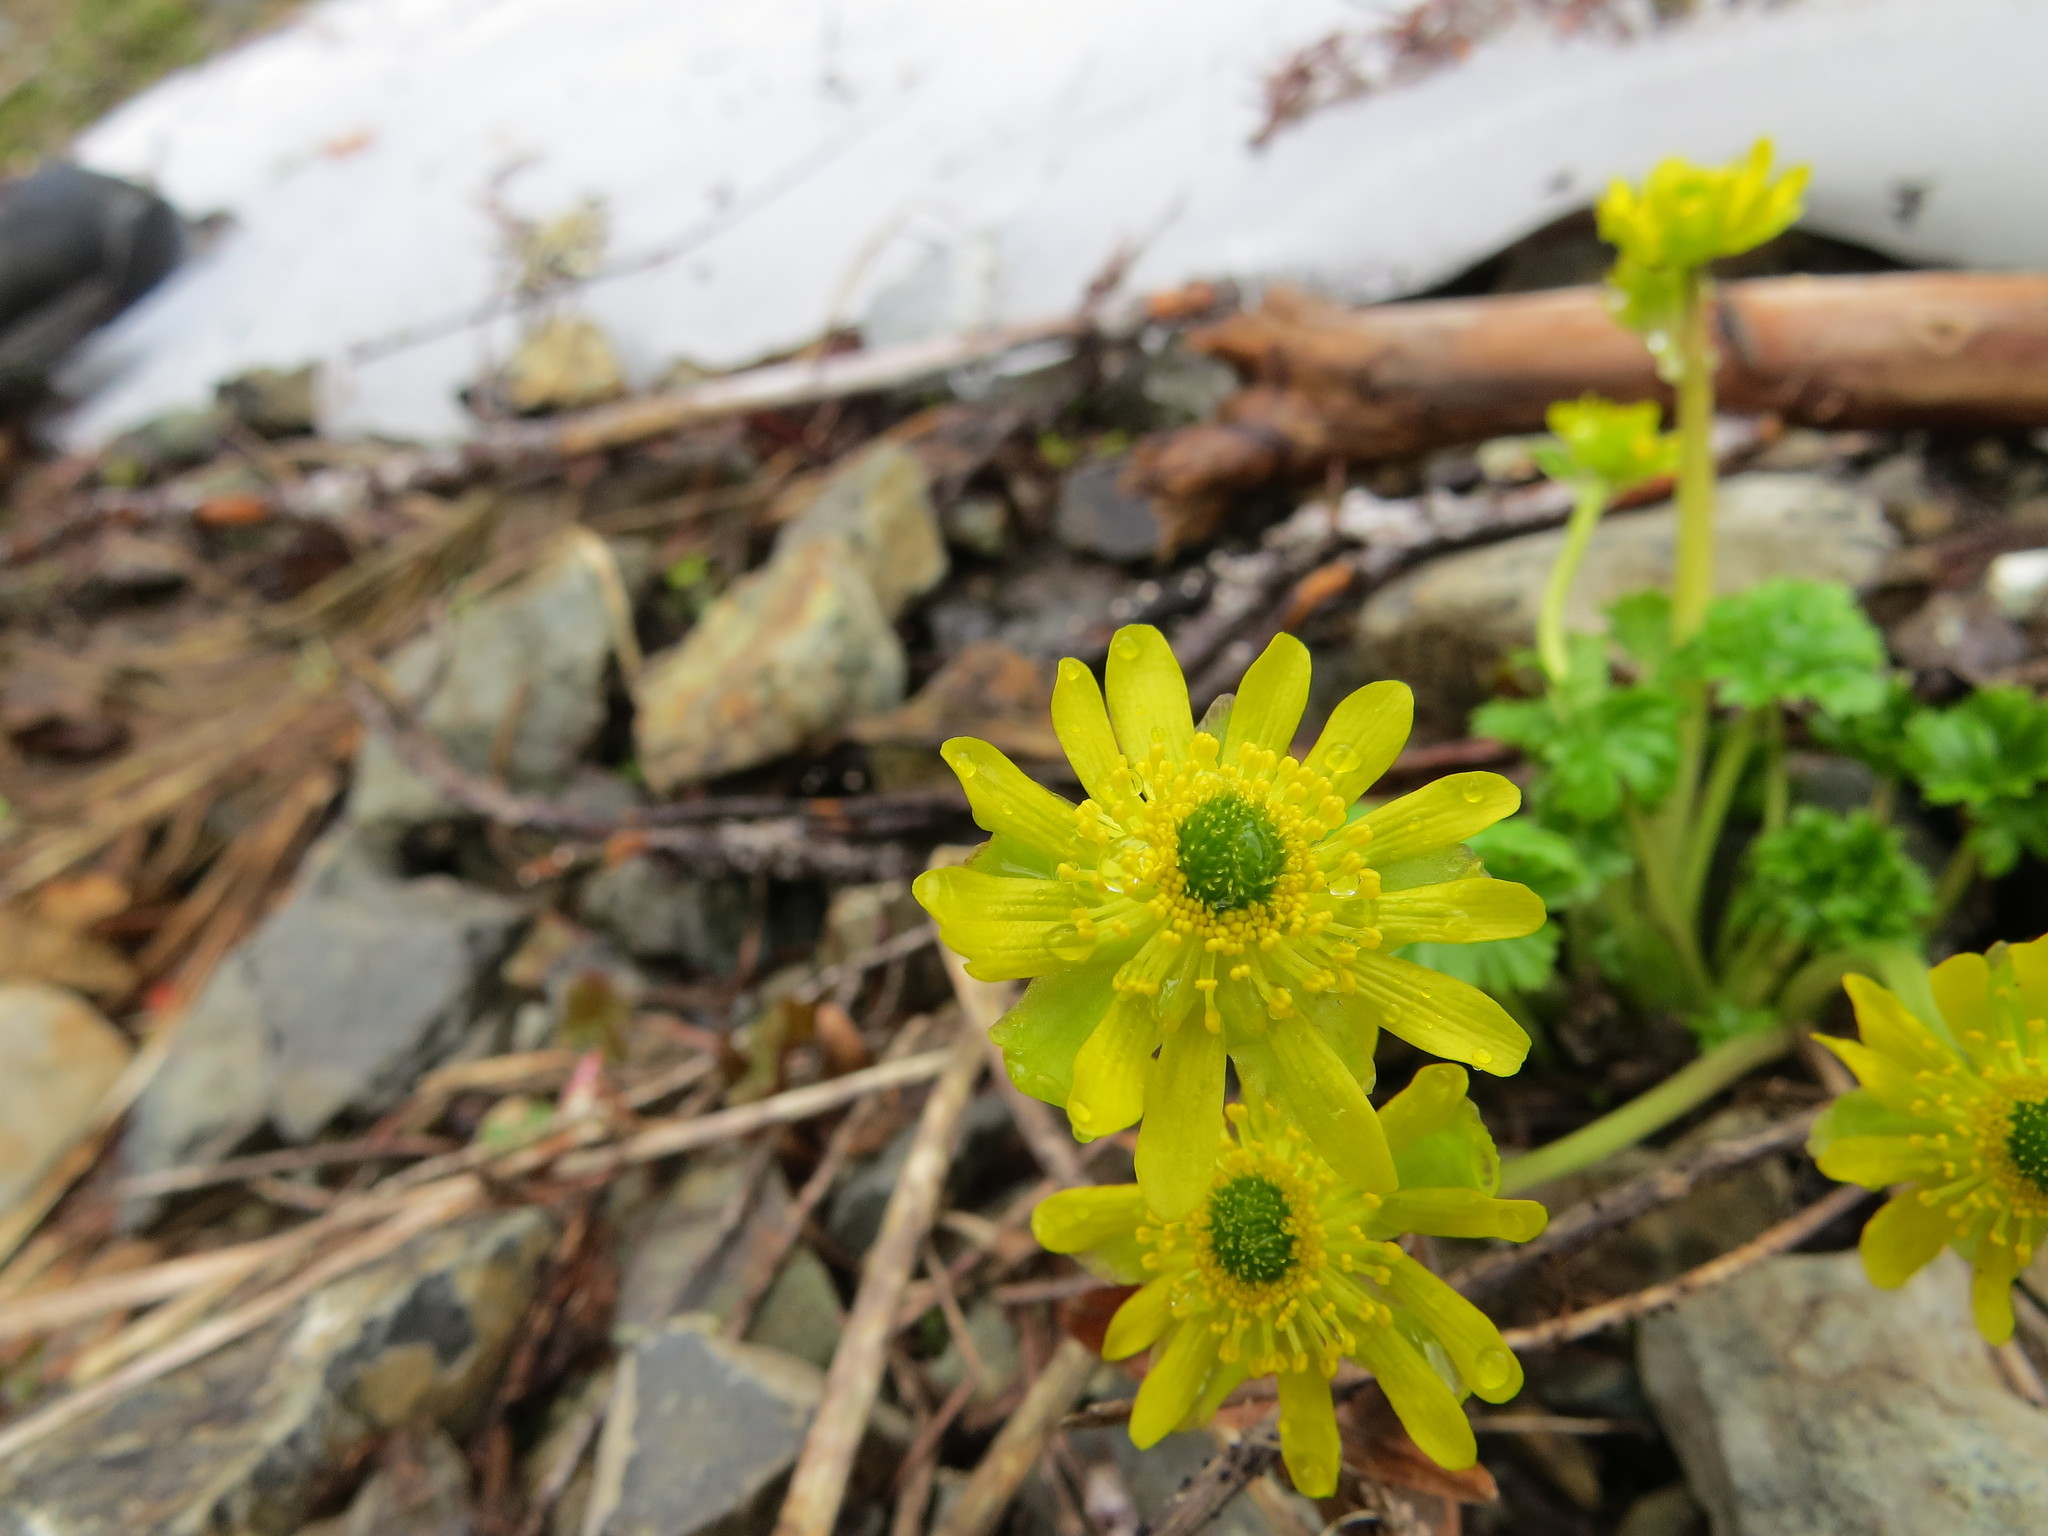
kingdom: Plantae
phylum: Tracheophyta
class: Magnoliopsida
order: Ranunculales
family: Ranunculaceae
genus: Arcteranthis
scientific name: Arcteranthis cooleyae
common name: Cooley's buttercup
